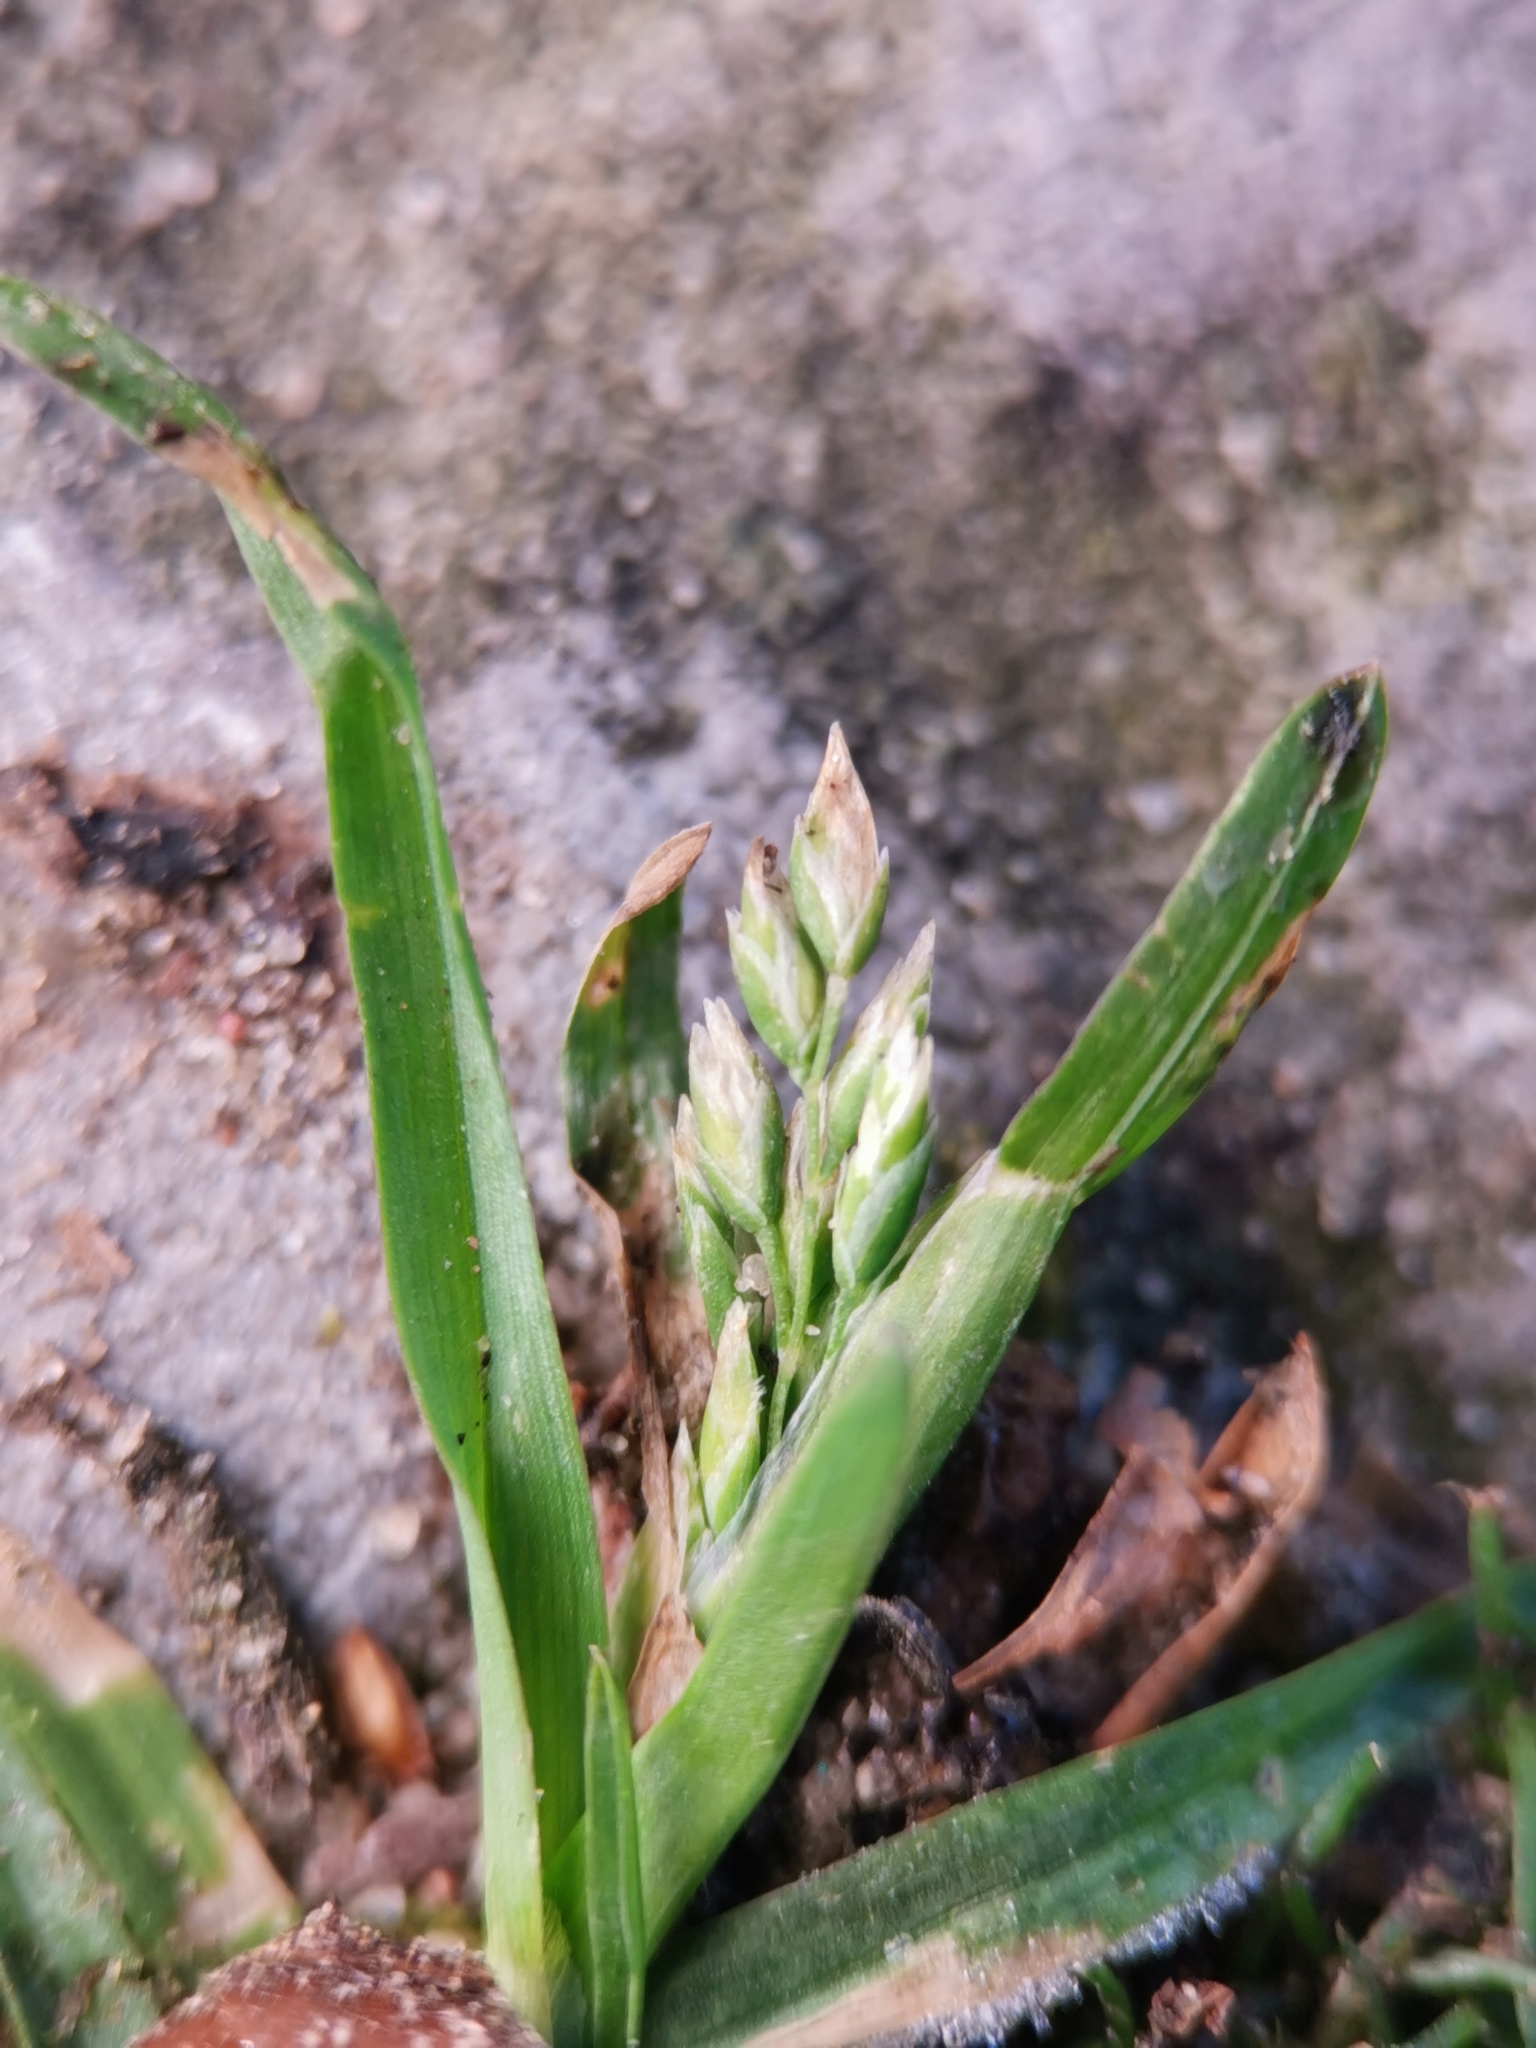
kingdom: Plantae
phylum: Tracheophyta
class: Liliopsida
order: Poales
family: Poaceae
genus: Poa
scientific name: Poa annua
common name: Annual bluegrass
